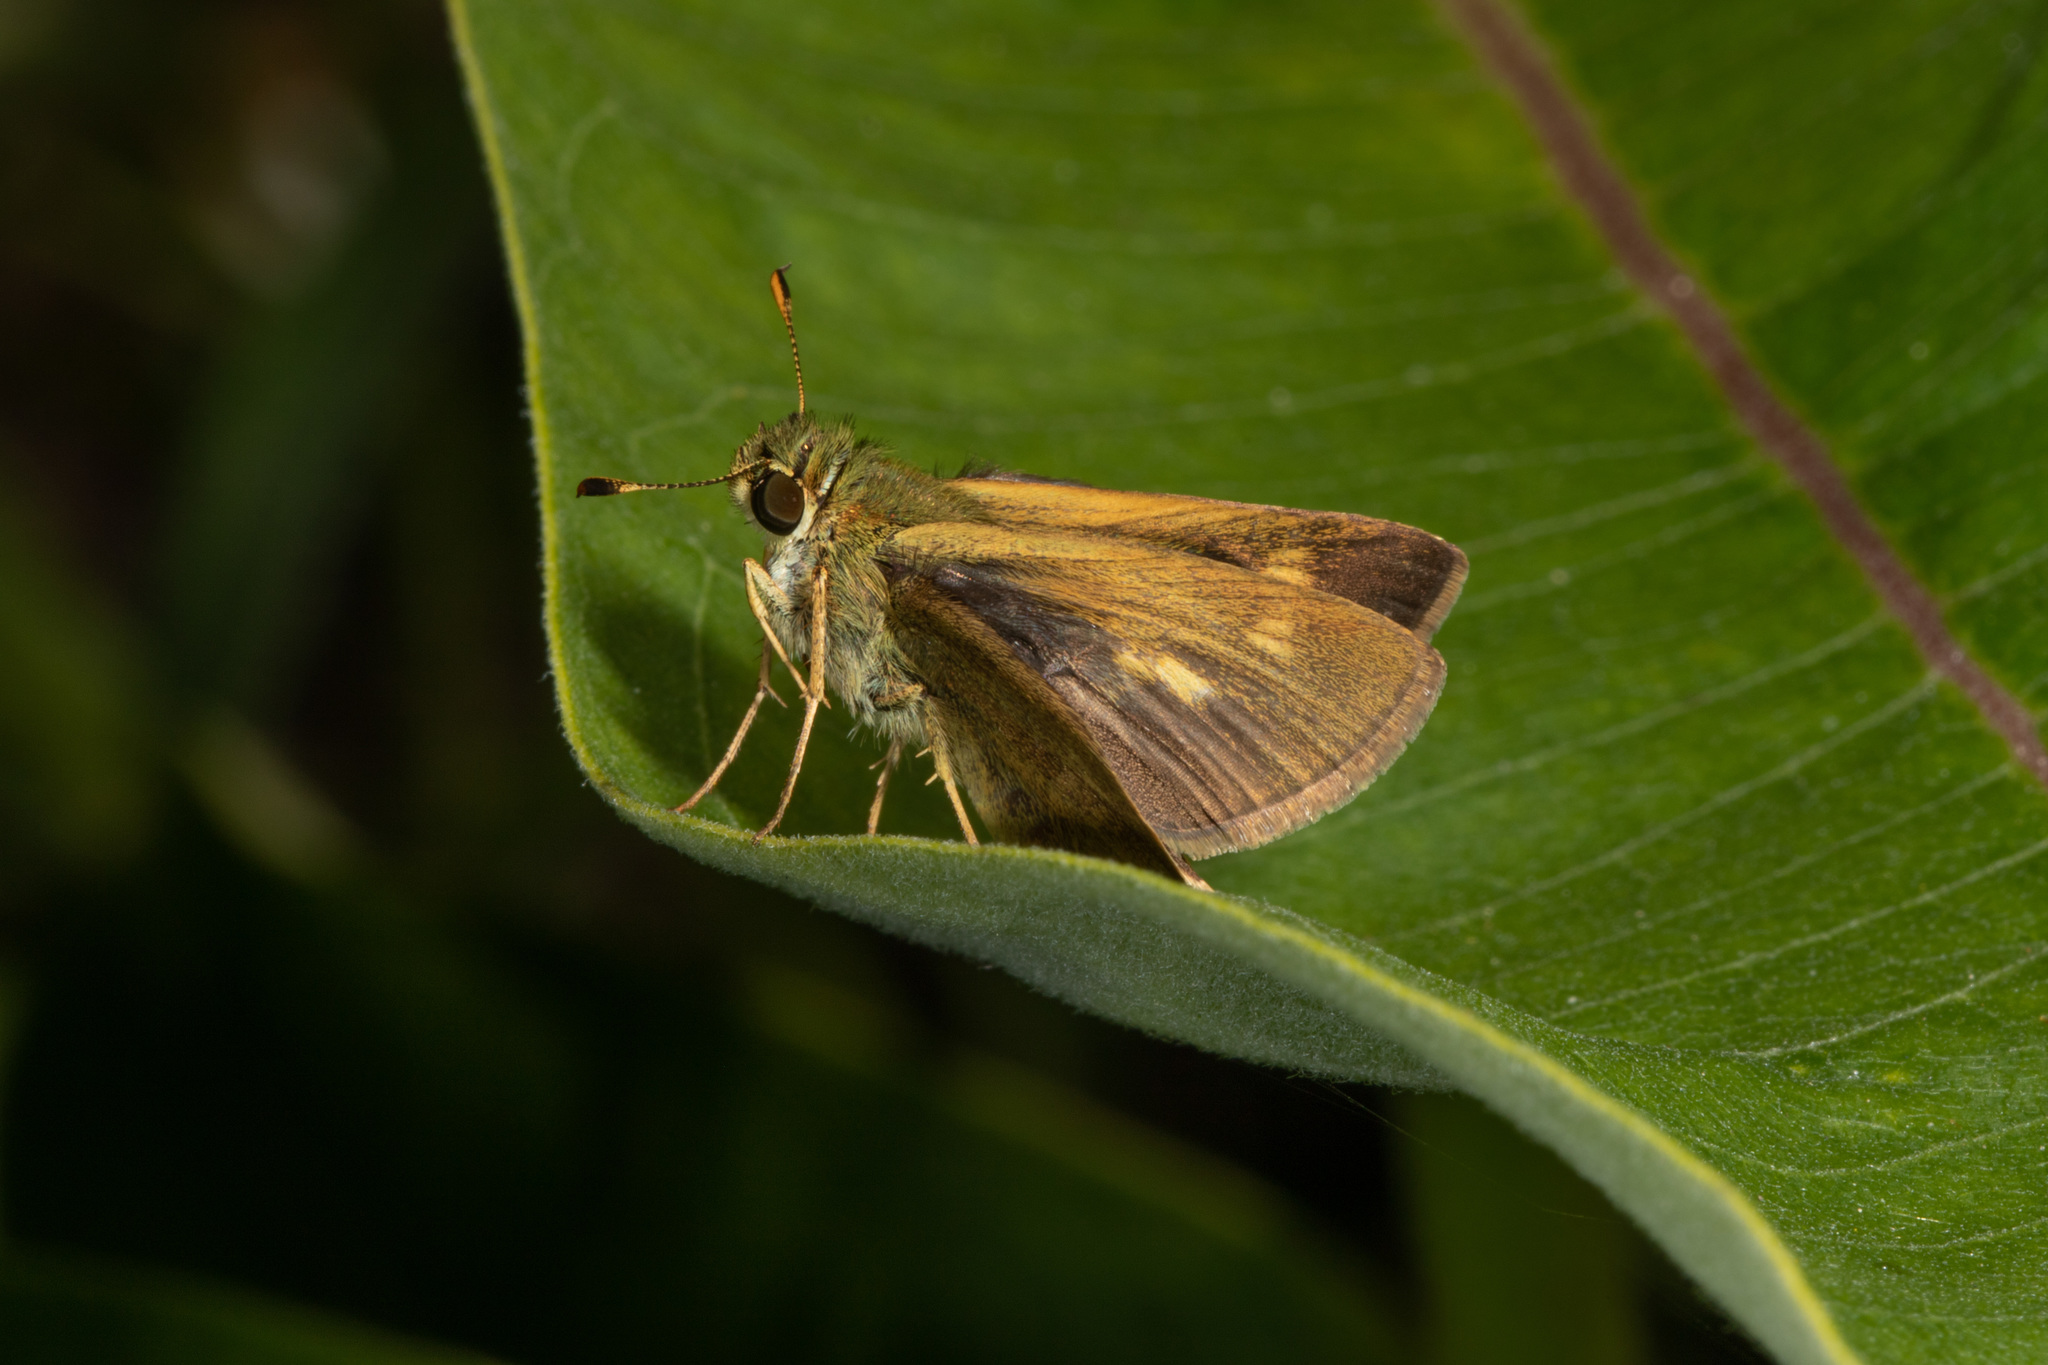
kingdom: Animalia
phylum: Arthropoda
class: Insecta
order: Lepidoptera
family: Hesperiidae
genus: Polites
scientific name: Polites egeremet
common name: Northern broken-dash
